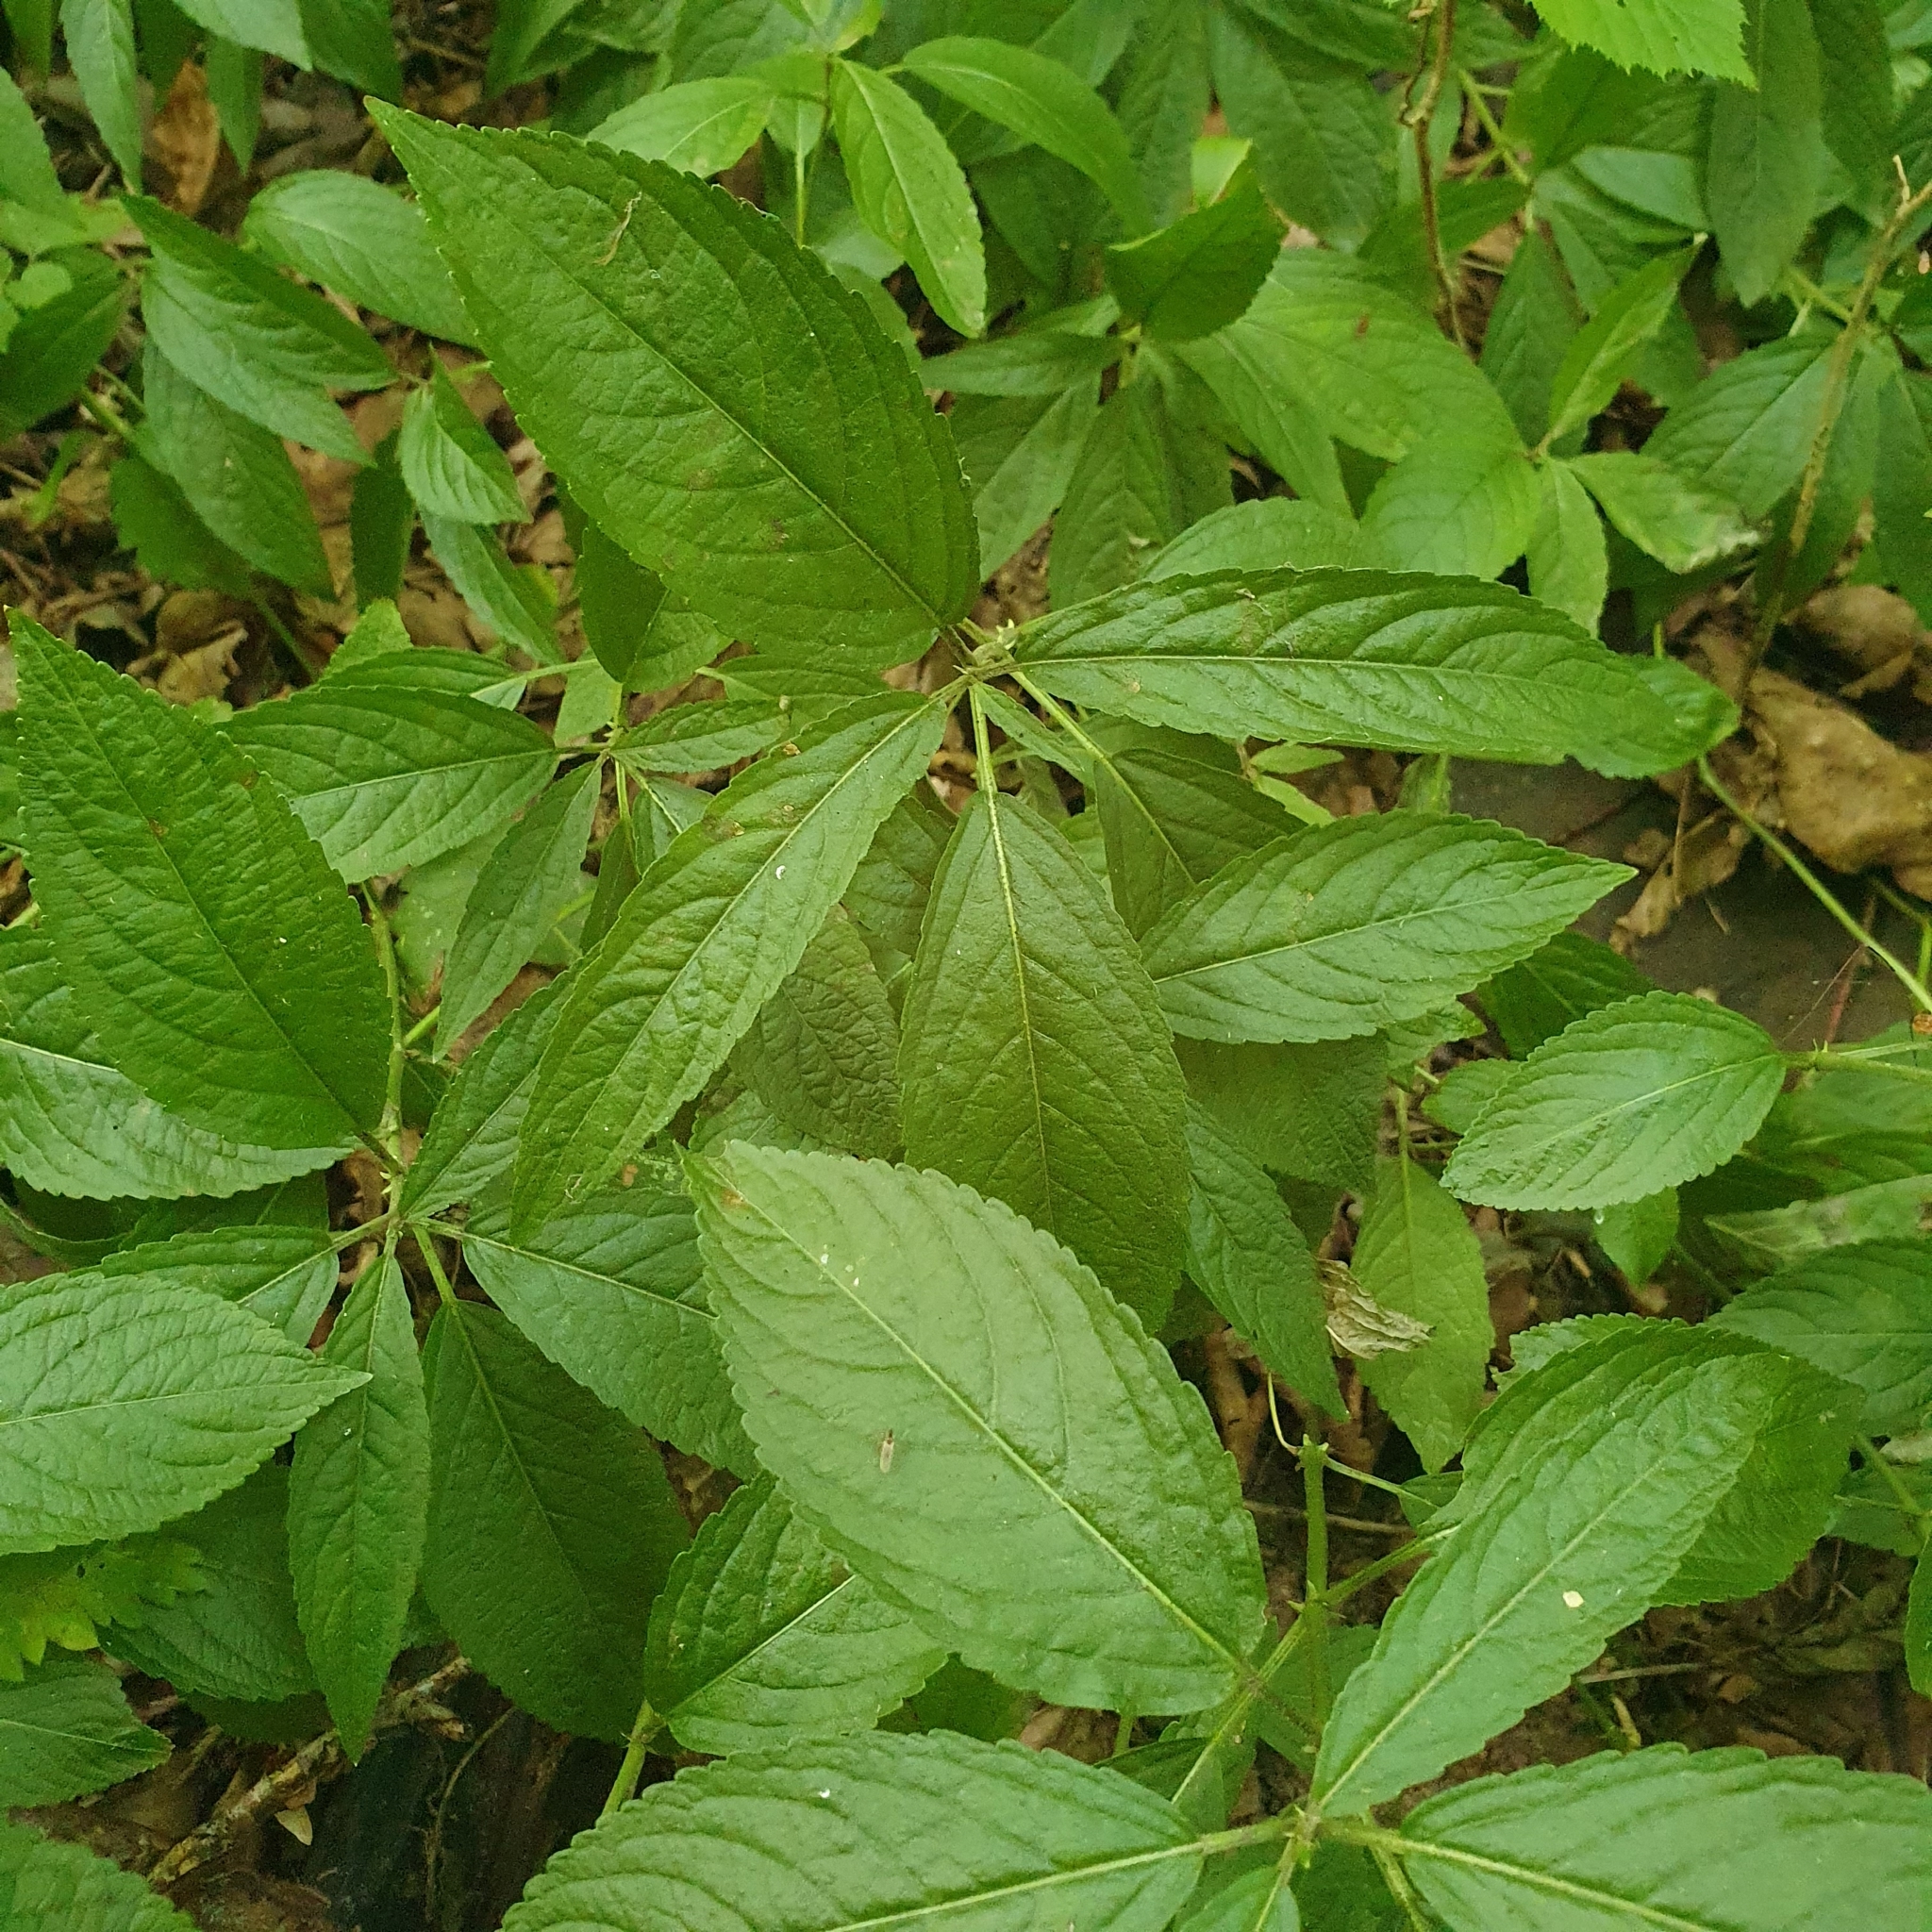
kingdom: Plantae
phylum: Tracheophyta
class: Magnoliopsida
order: Malpighiales
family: Euphorbiaceae
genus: Mercurialis
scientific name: Mercurialis perennis
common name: Dog mercury
